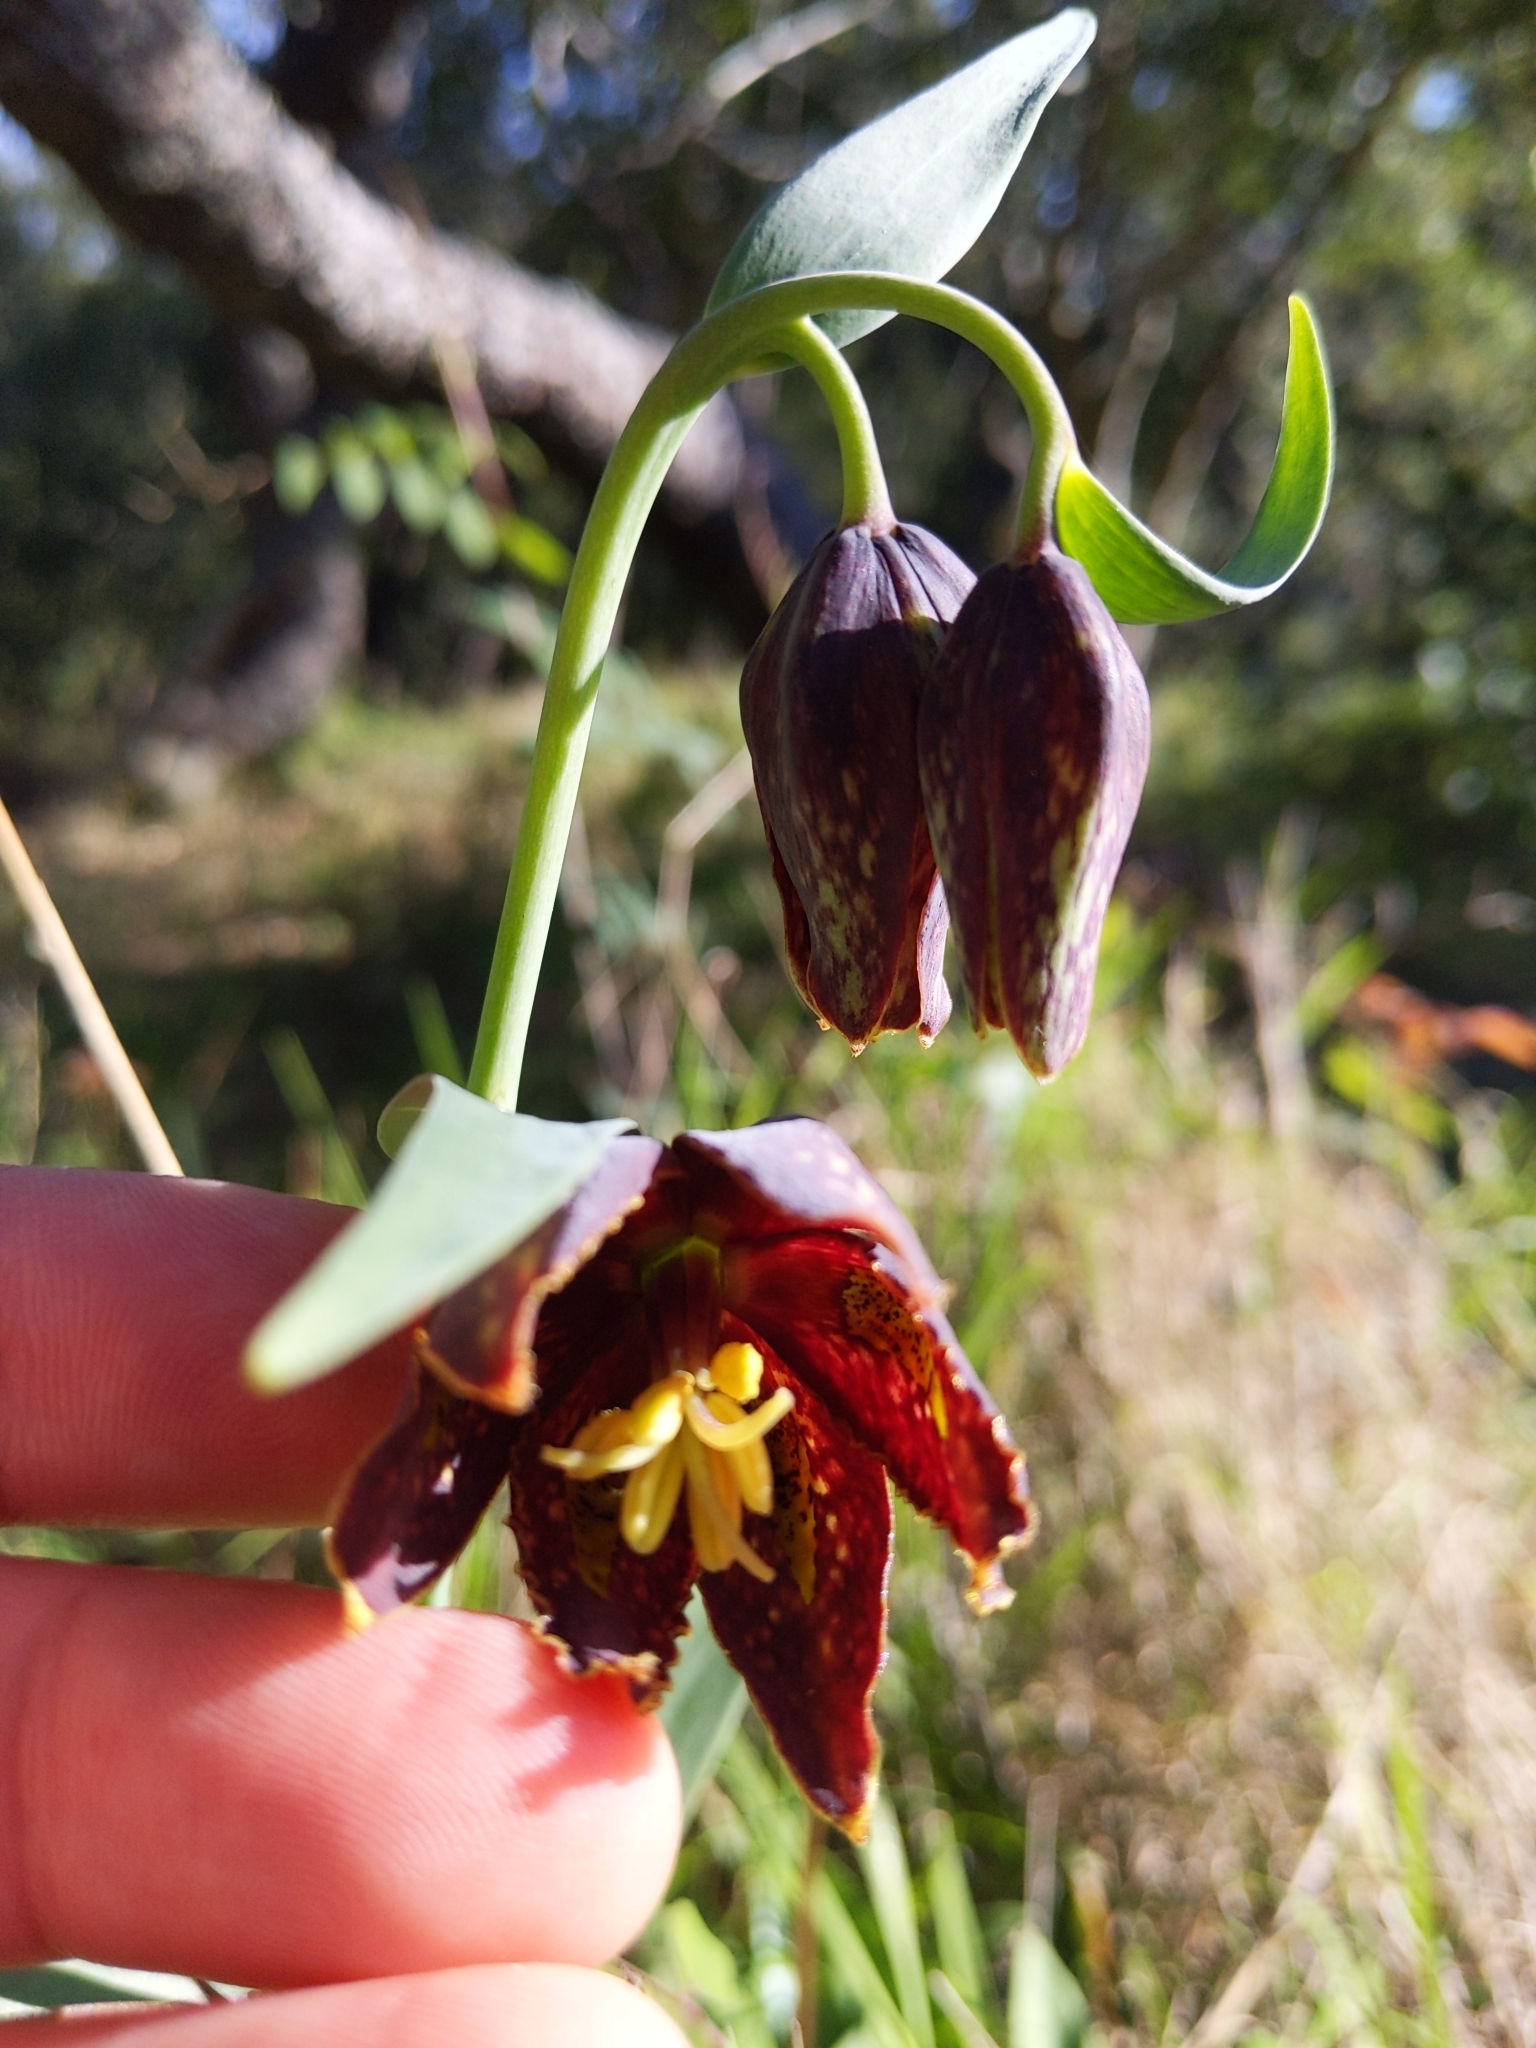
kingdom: Plantae
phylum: Tracheophyta
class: Liliopsida
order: Liliales
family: Liliaceae
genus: Fritillaria
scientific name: Fritillaria affinis
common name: Ojai fritillary
